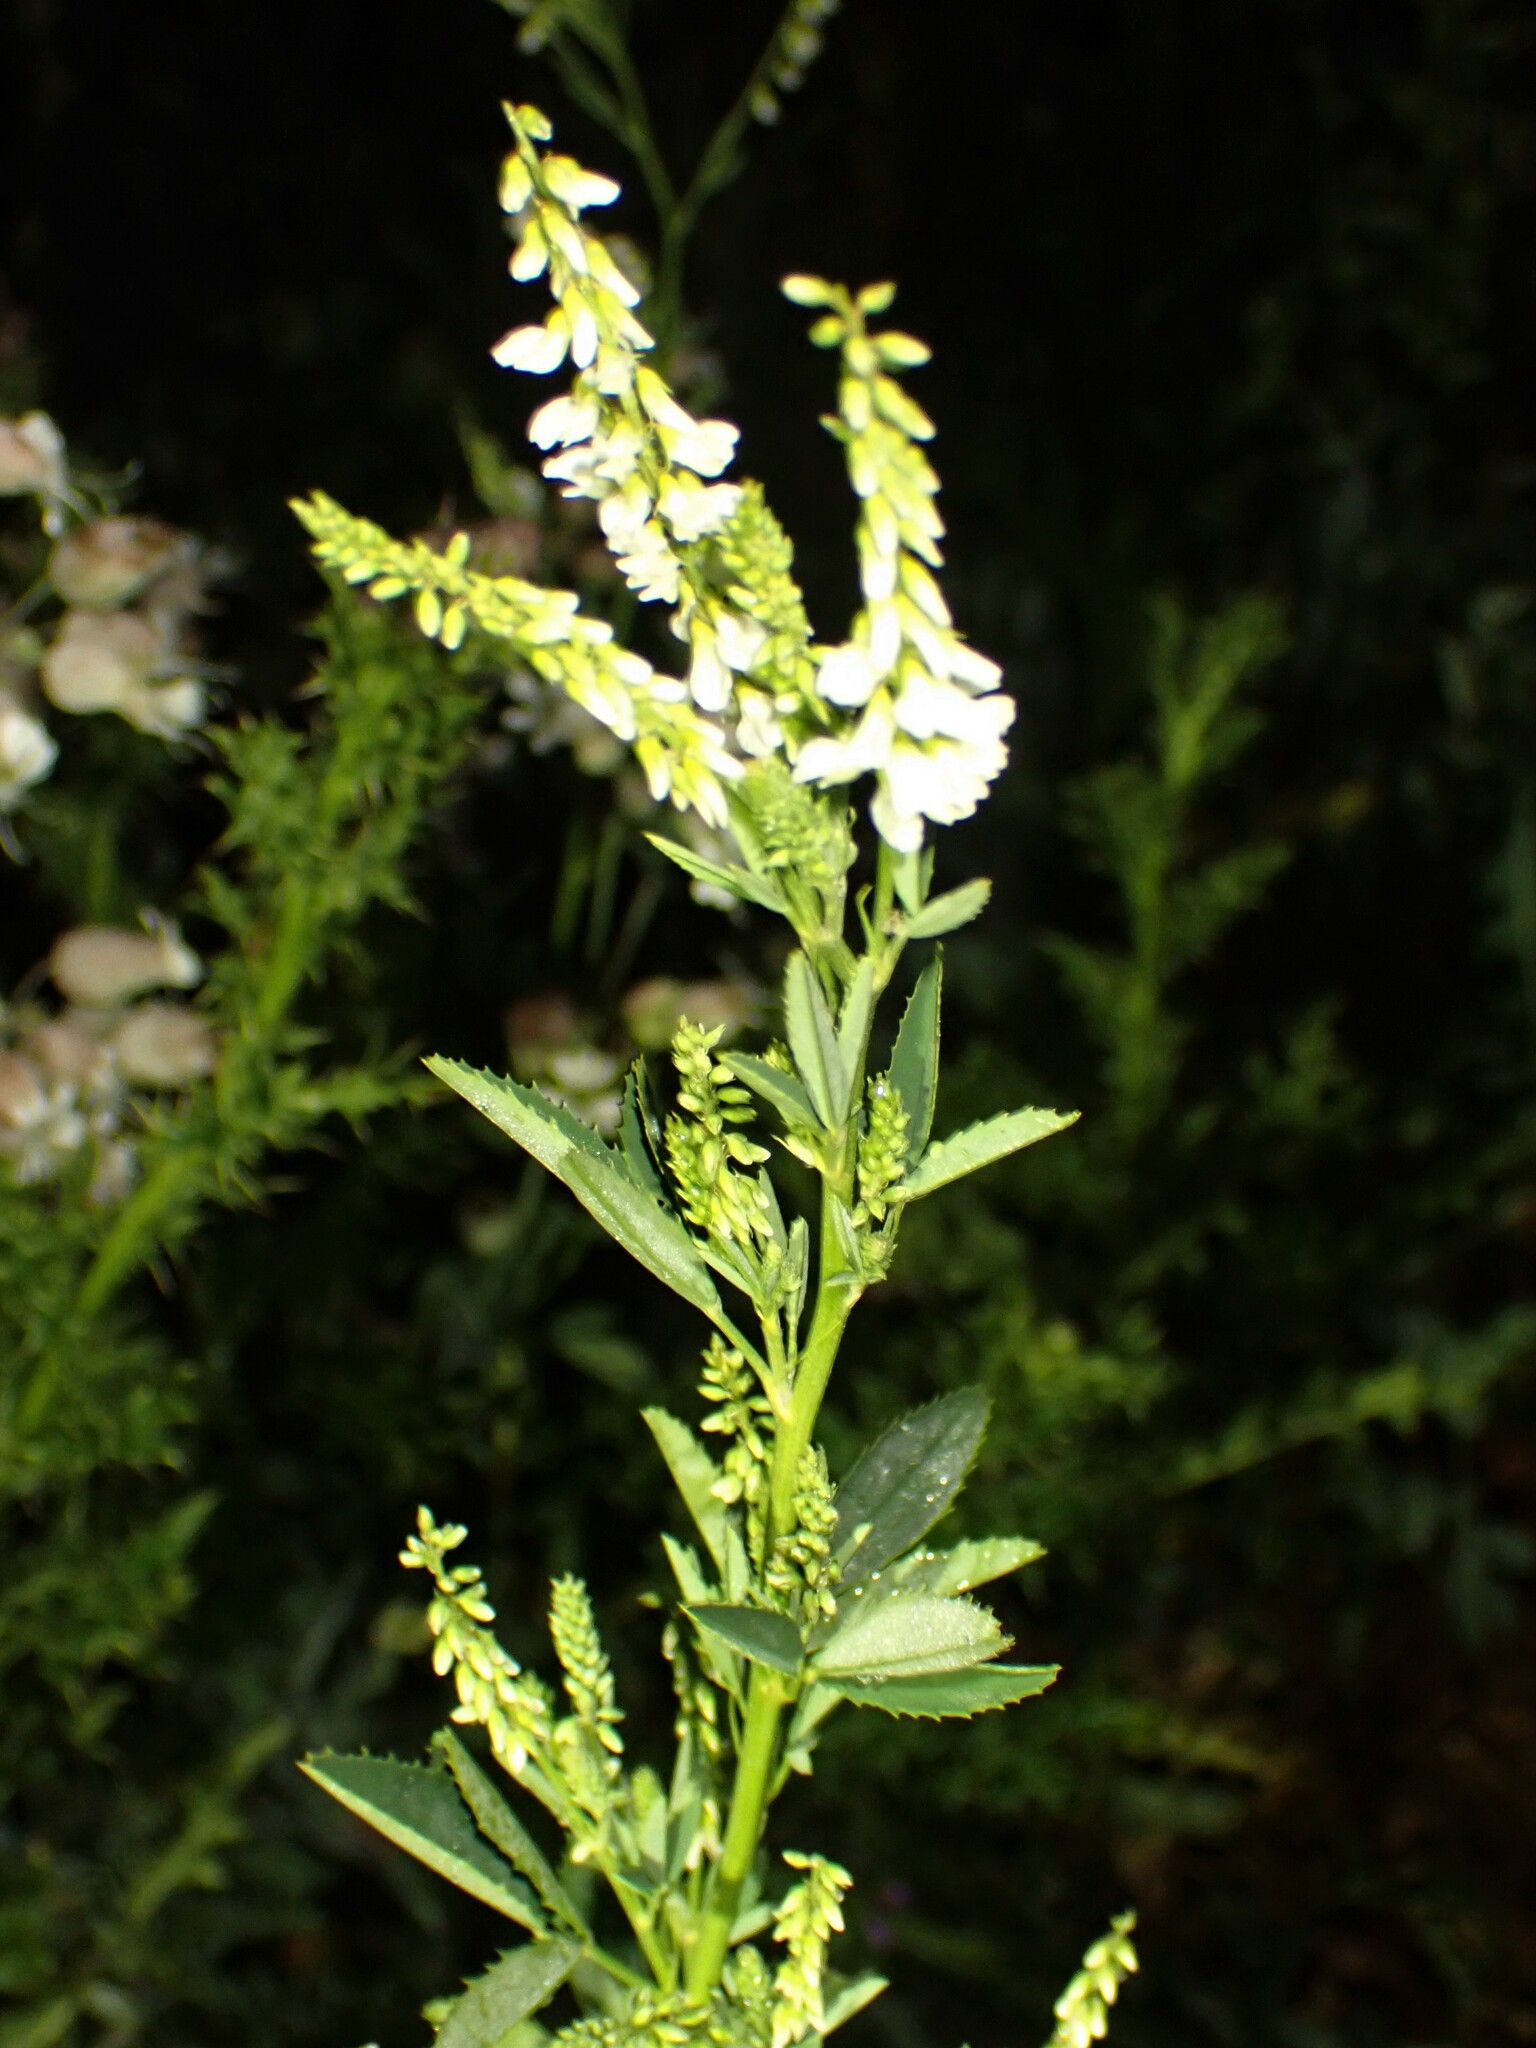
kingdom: Plantae
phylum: Tracheophyta
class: Magnoliopsida
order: Fabales
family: Fabaceae
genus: Melilotus
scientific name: Melilotus albus
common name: White melilot
